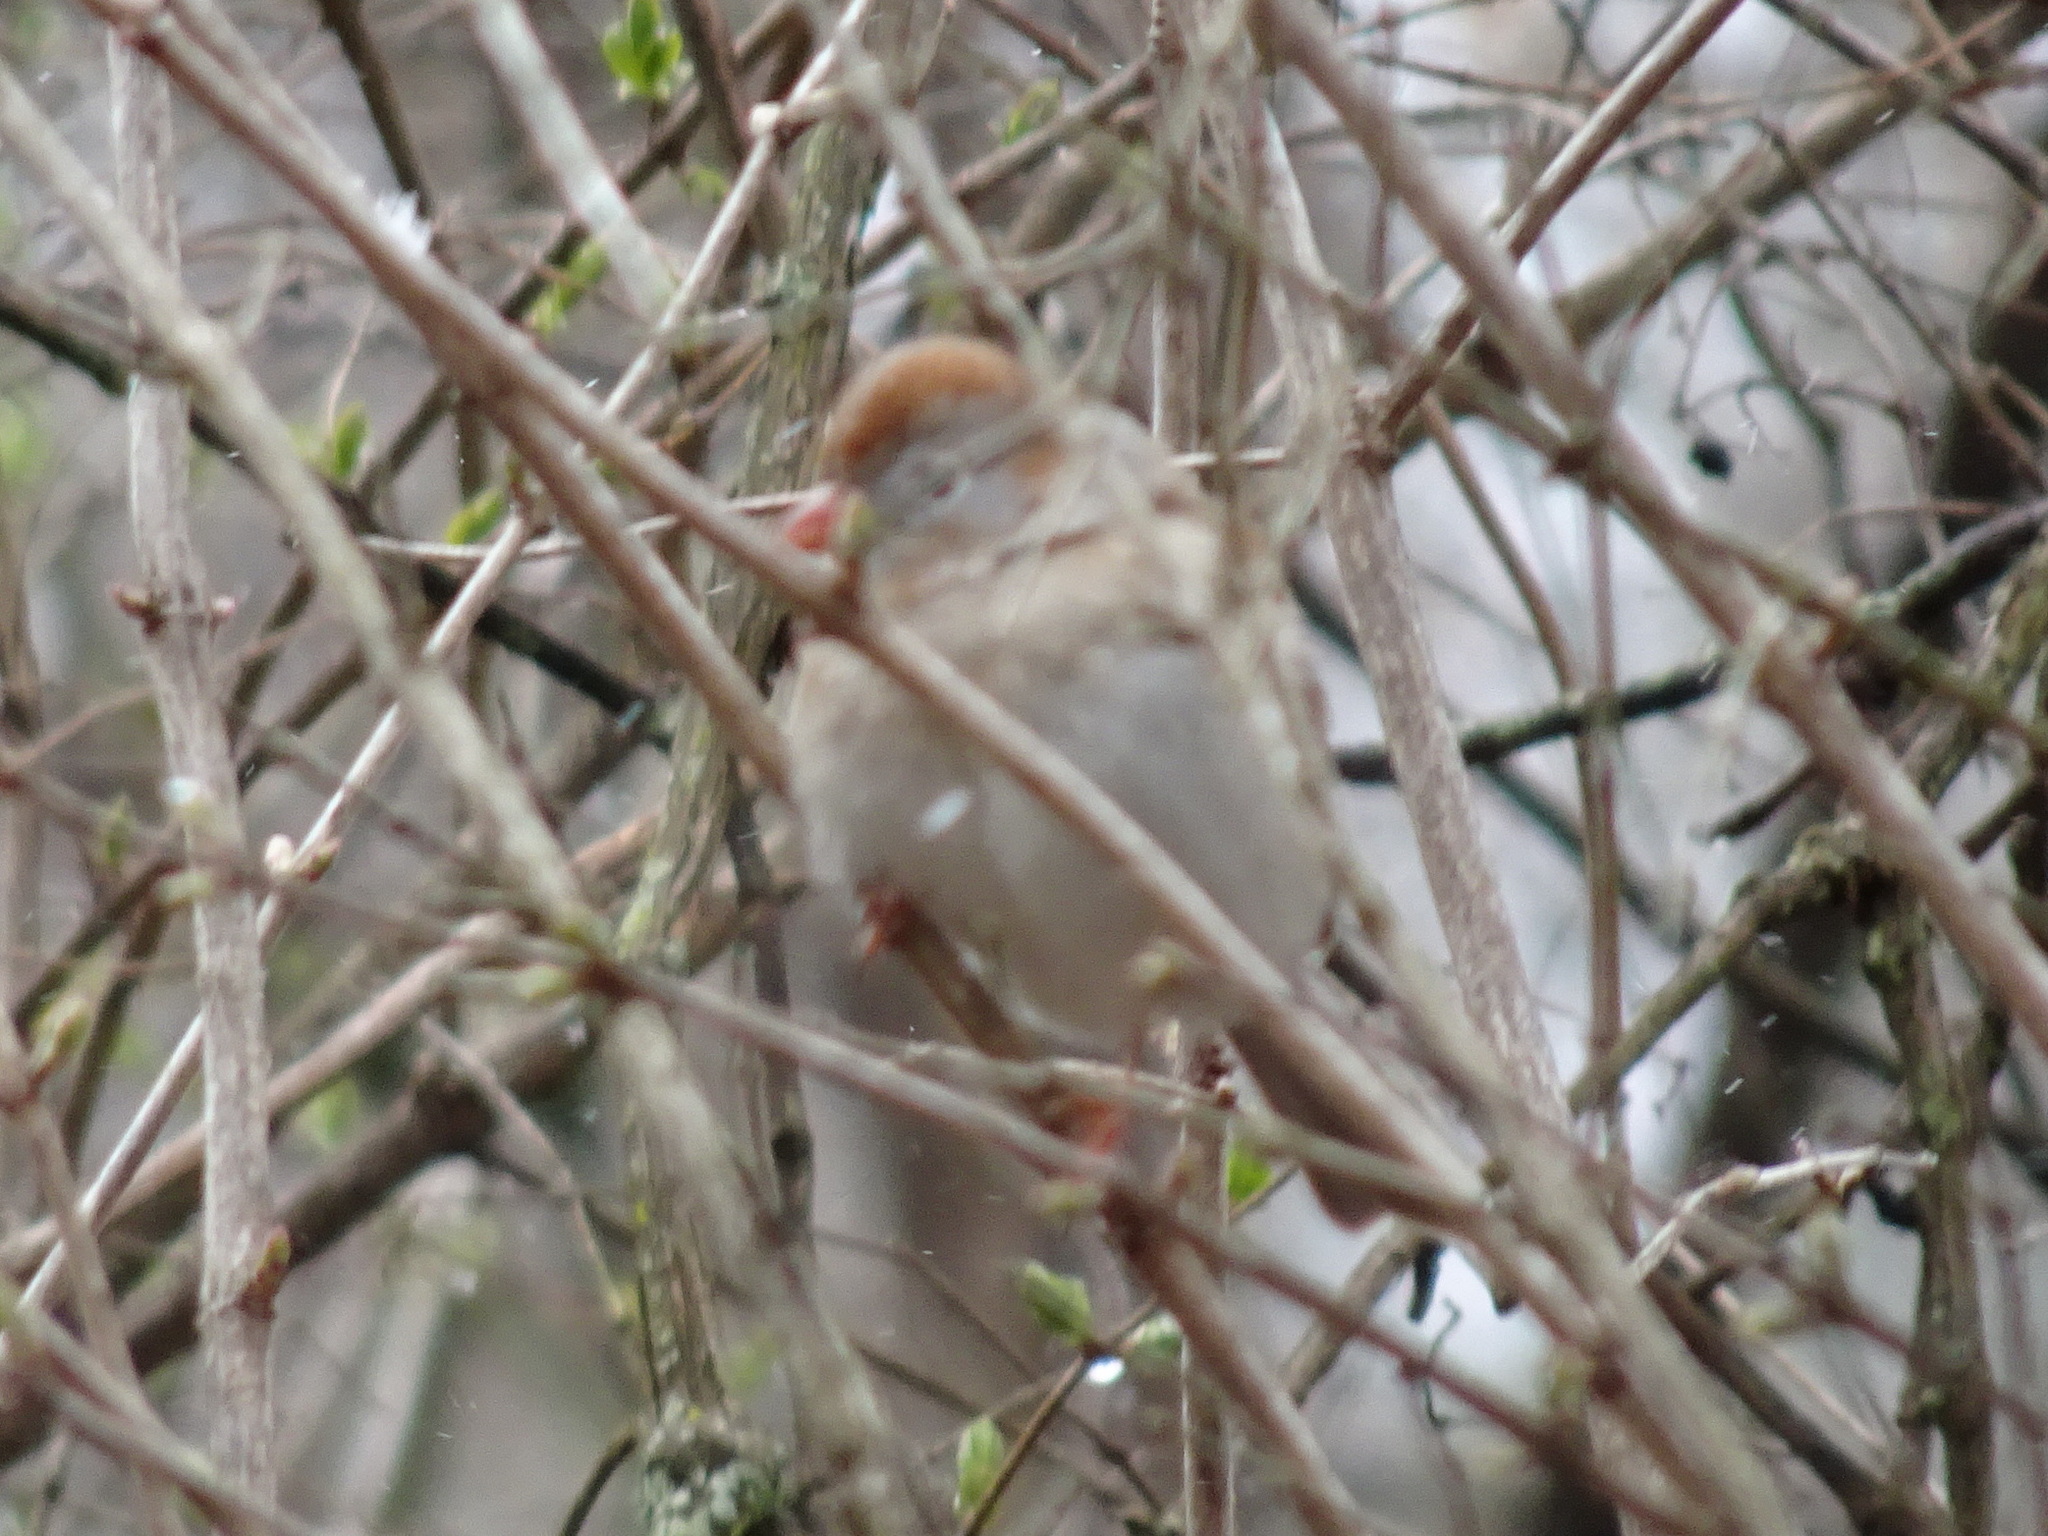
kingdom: Animalia
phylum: Chordata
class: Aves
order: Passeriformes
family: Passerellidae
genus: Spizella
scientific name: Spizella pusilla
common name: Field sparrow
